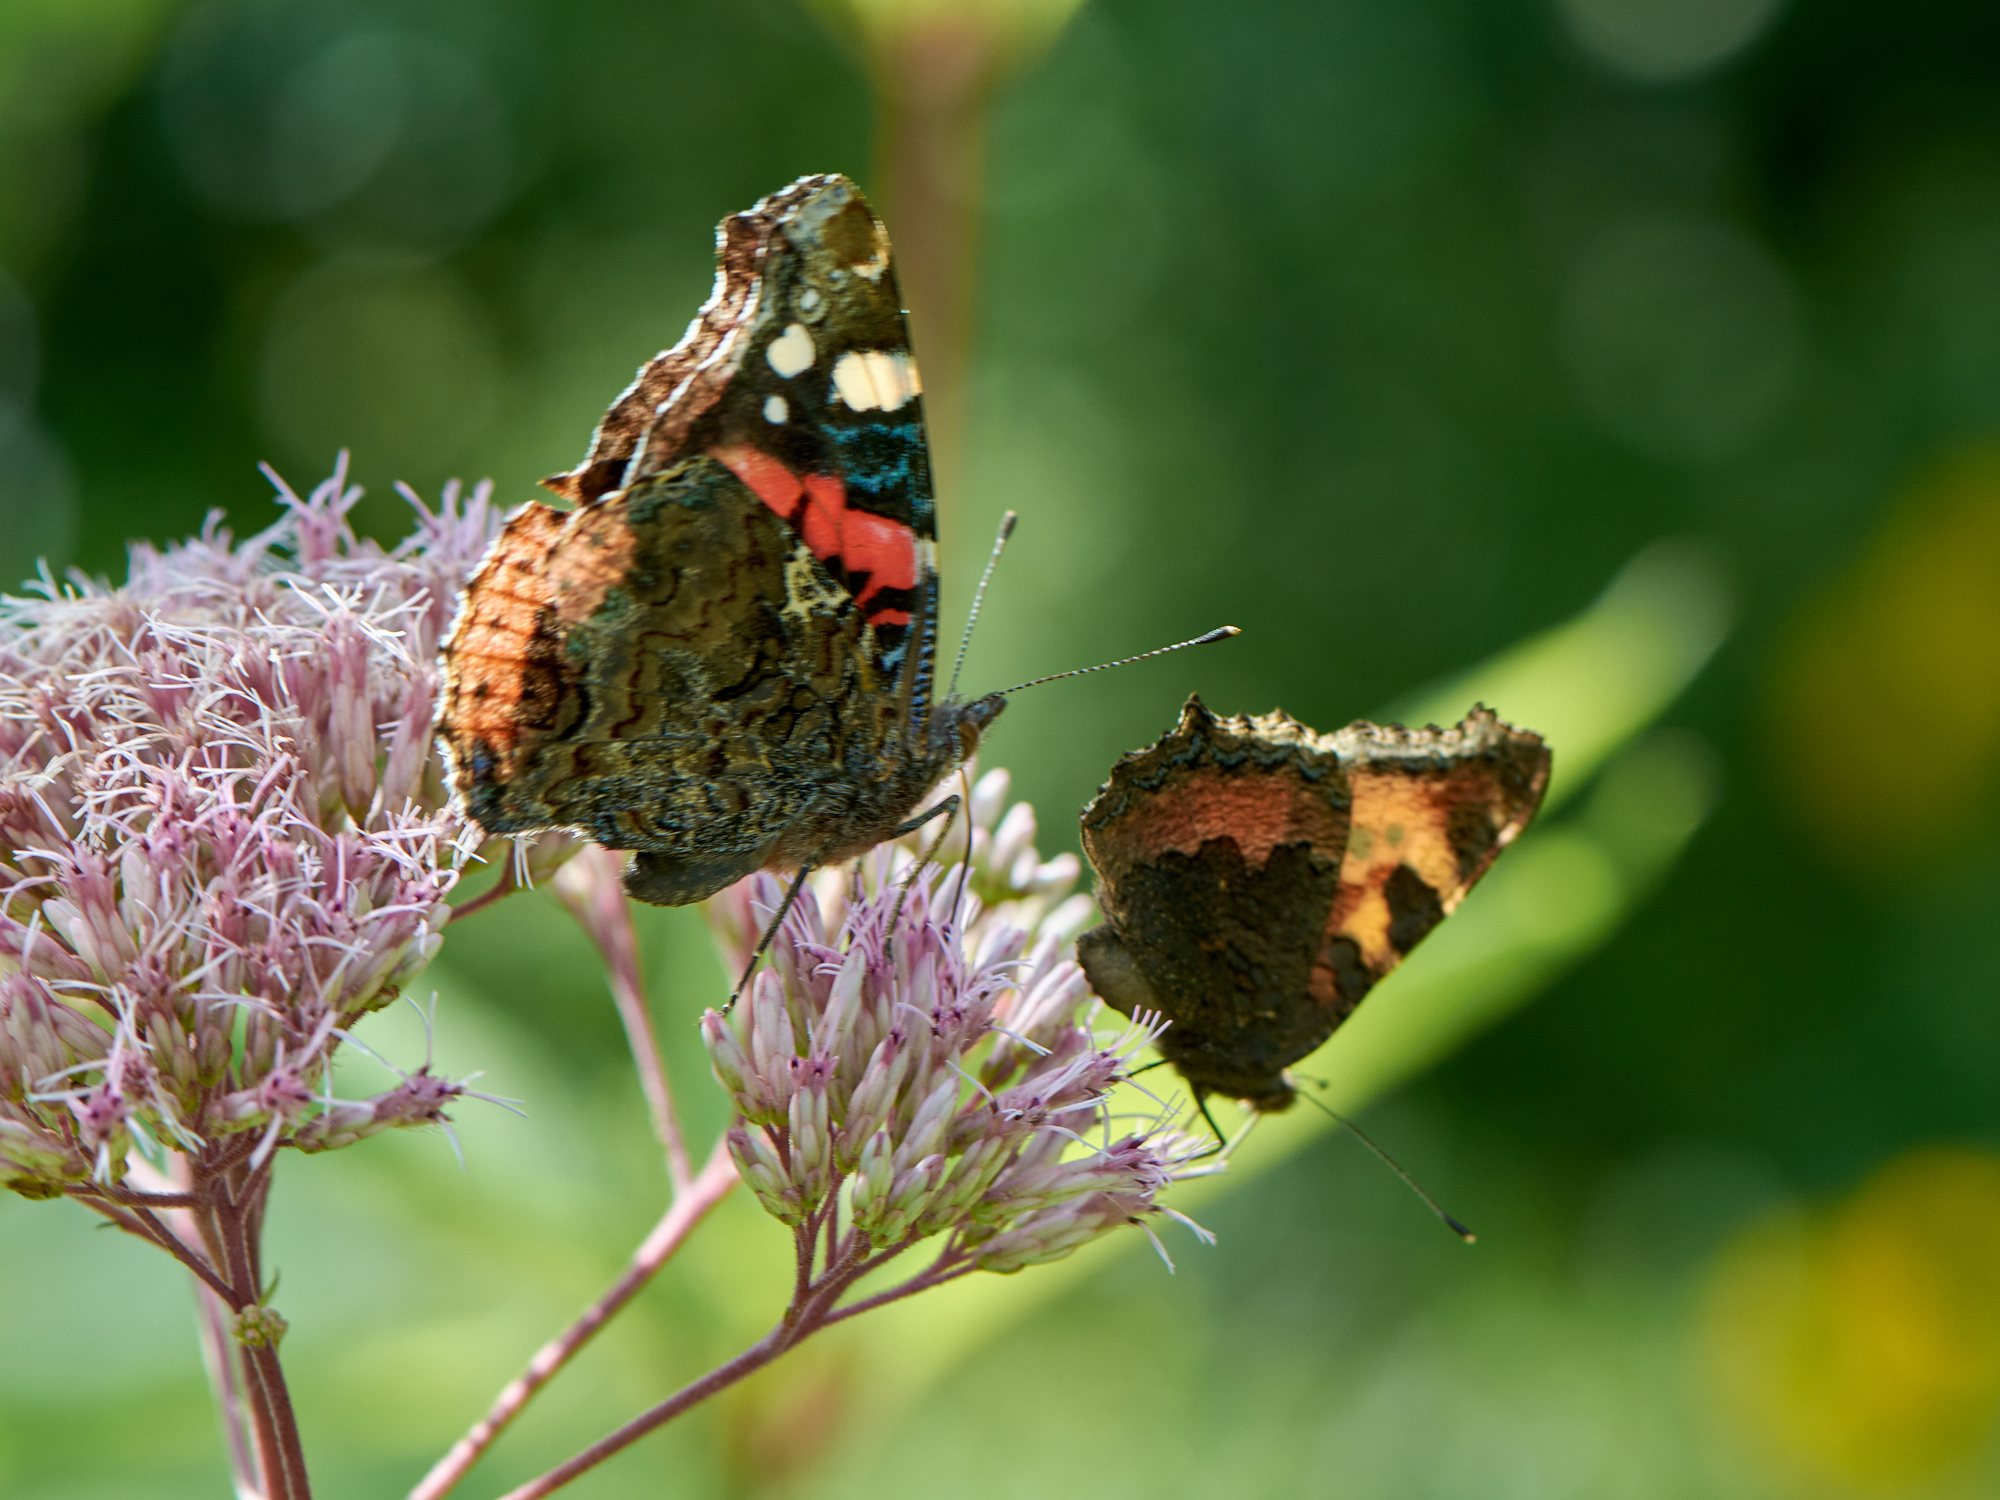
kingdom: Animalia
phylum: Arthropoda
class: Insecta
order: Lepidoptera
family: Nymphalidae
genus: Vanessa
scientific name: Vanessa atalanta
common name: Red admiral
